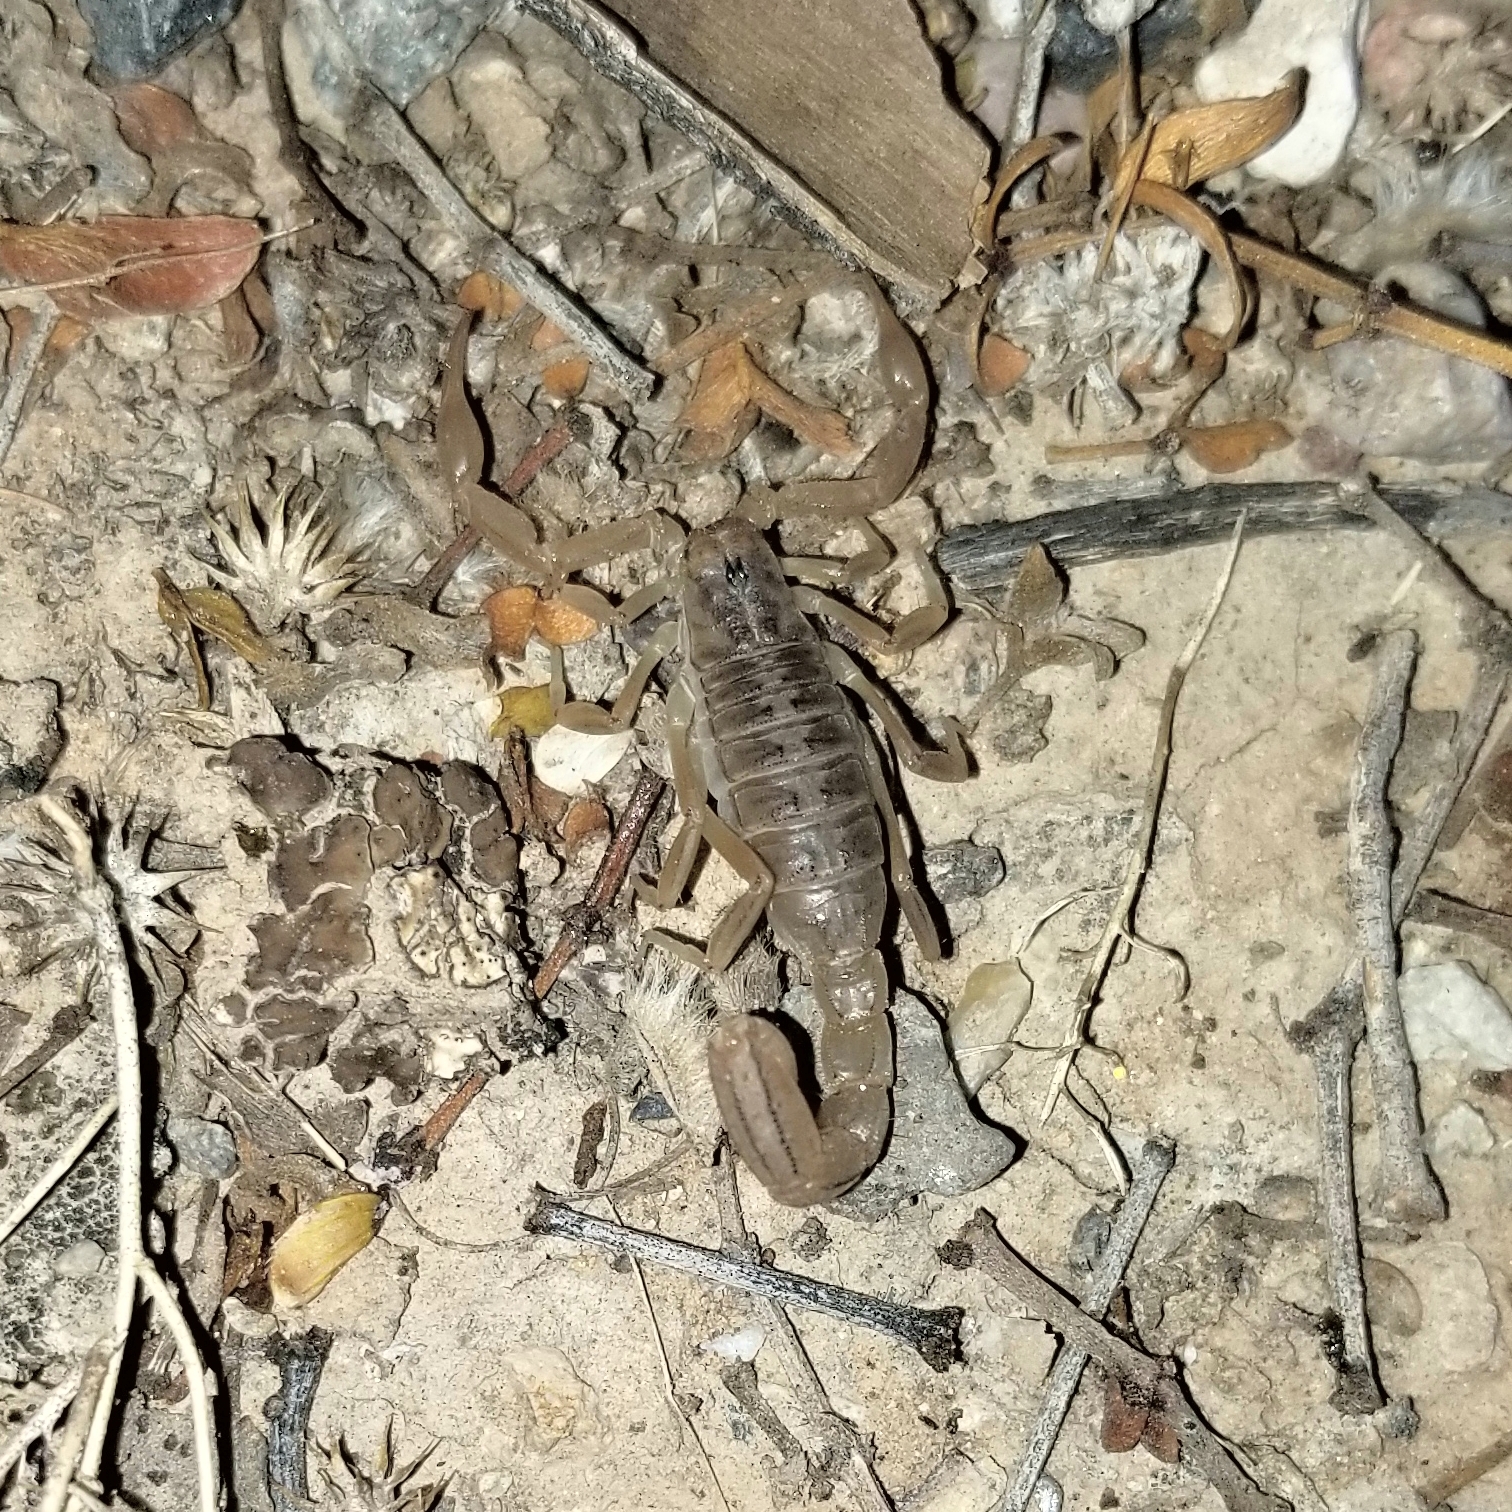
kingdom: Animalia
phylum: Arthropoda
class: Arachnida
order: Scorpiones
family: Vaejovidae
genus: Paravaejovis
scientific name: Paravaejovis spinigerus
